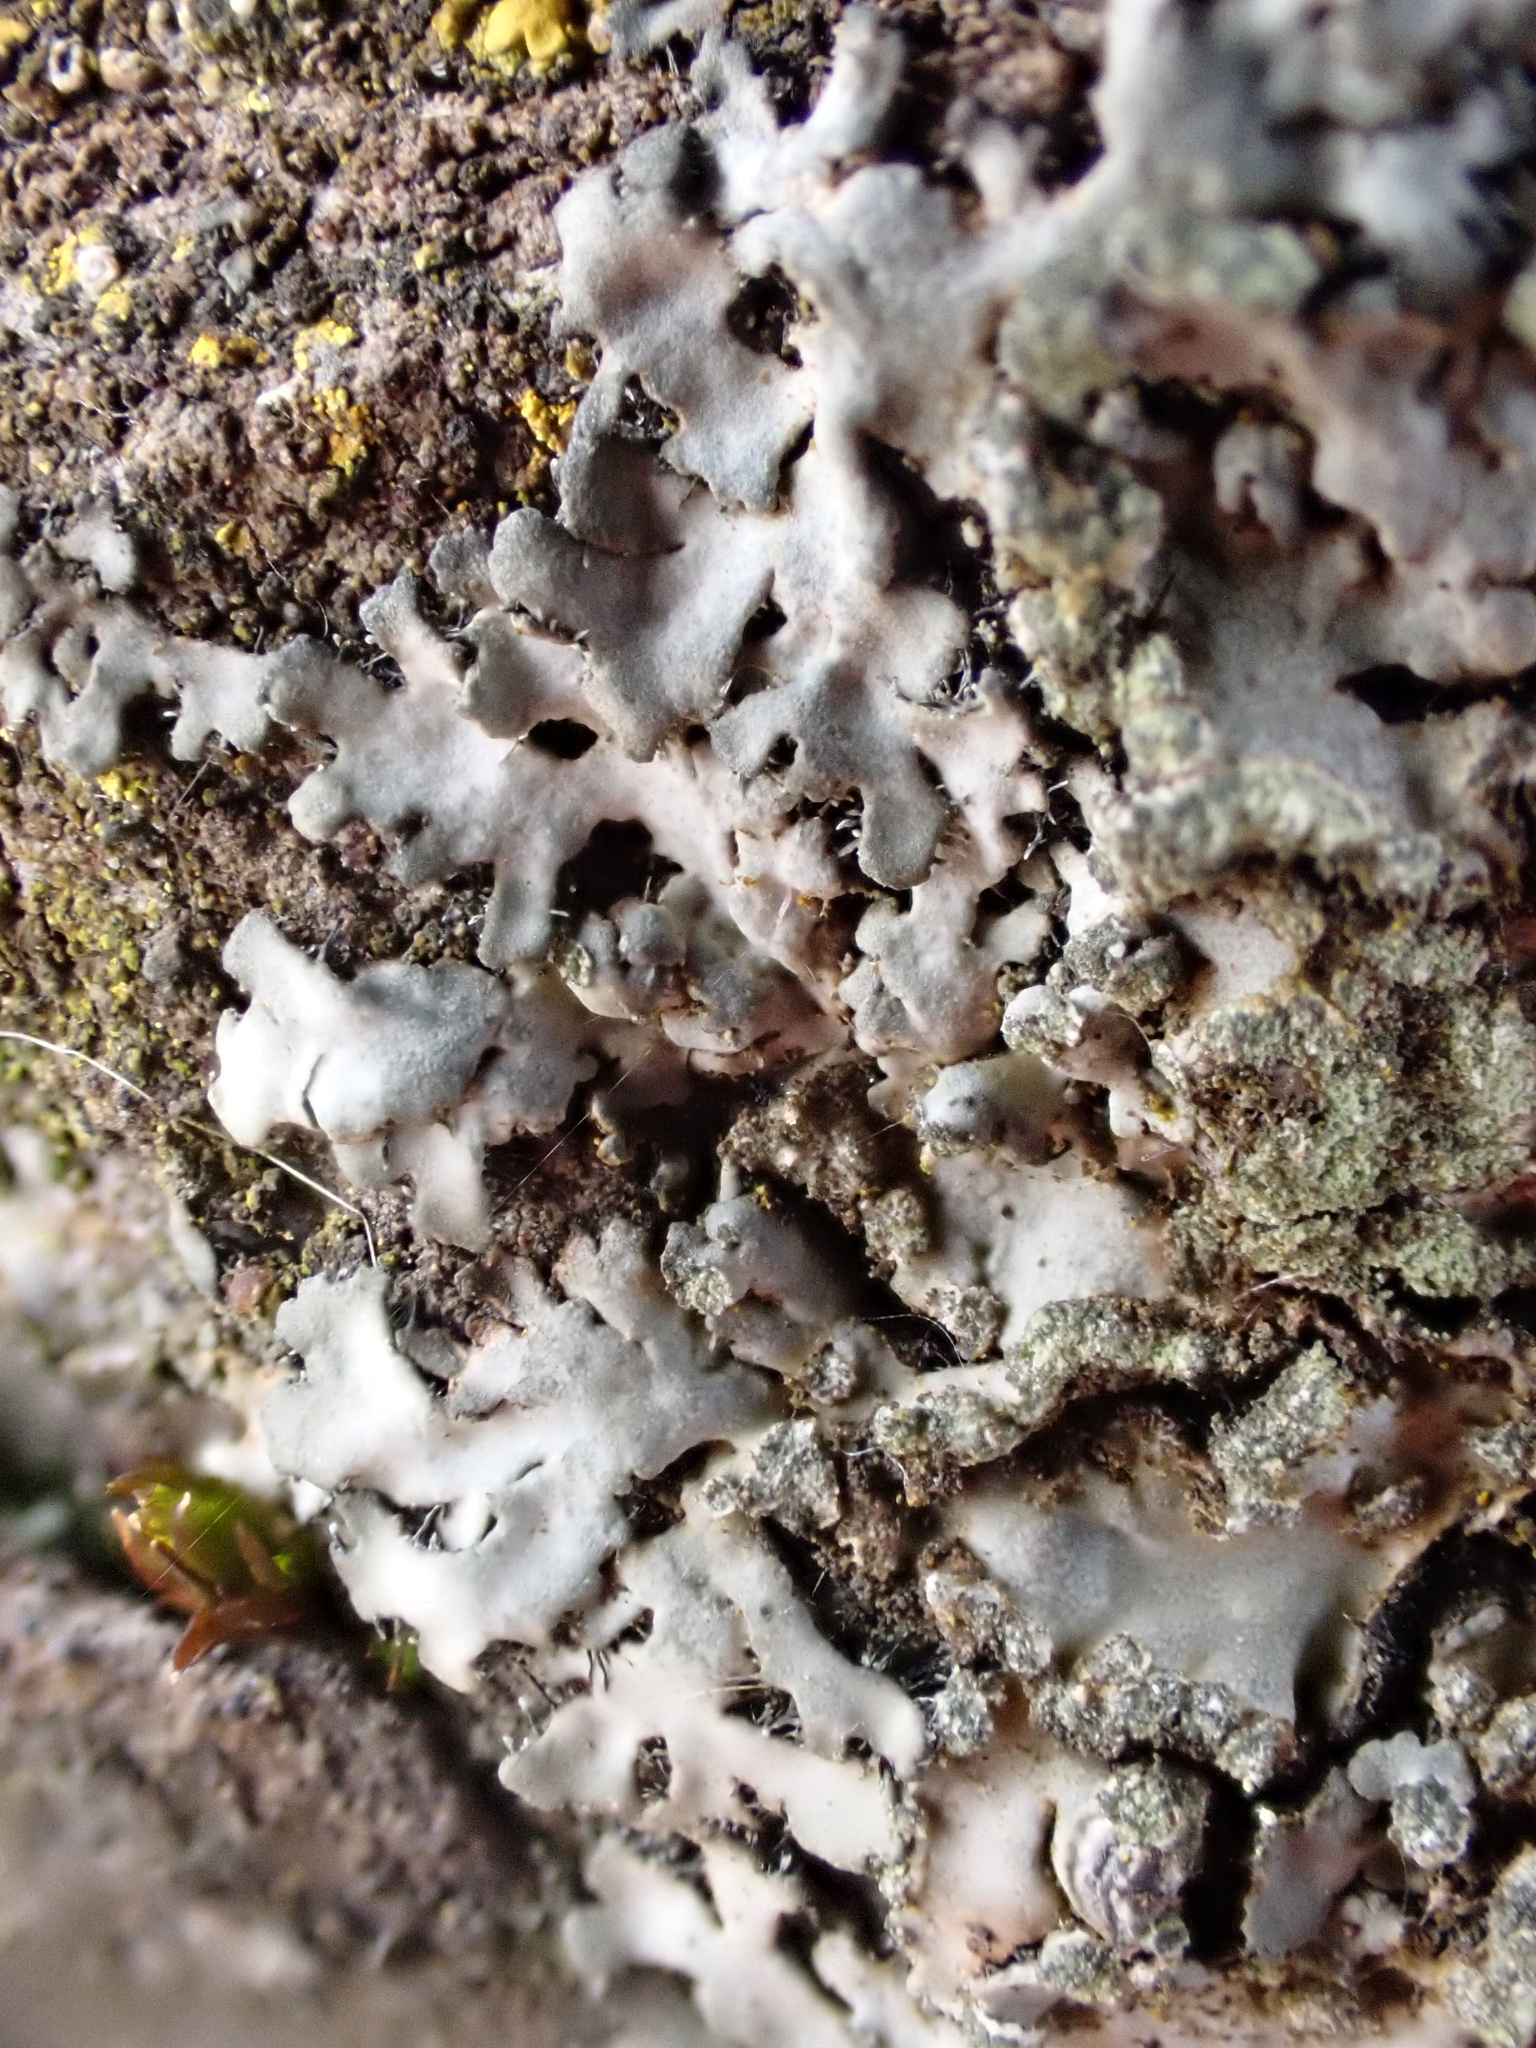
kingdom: Fungi
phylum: Ascomycota
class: Lecanoromycetes
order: Caliciales
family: Physciaceae
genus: Phaeophyscia
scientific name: Phaeophyscia orbicularis
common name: Mealy shadow lichen
